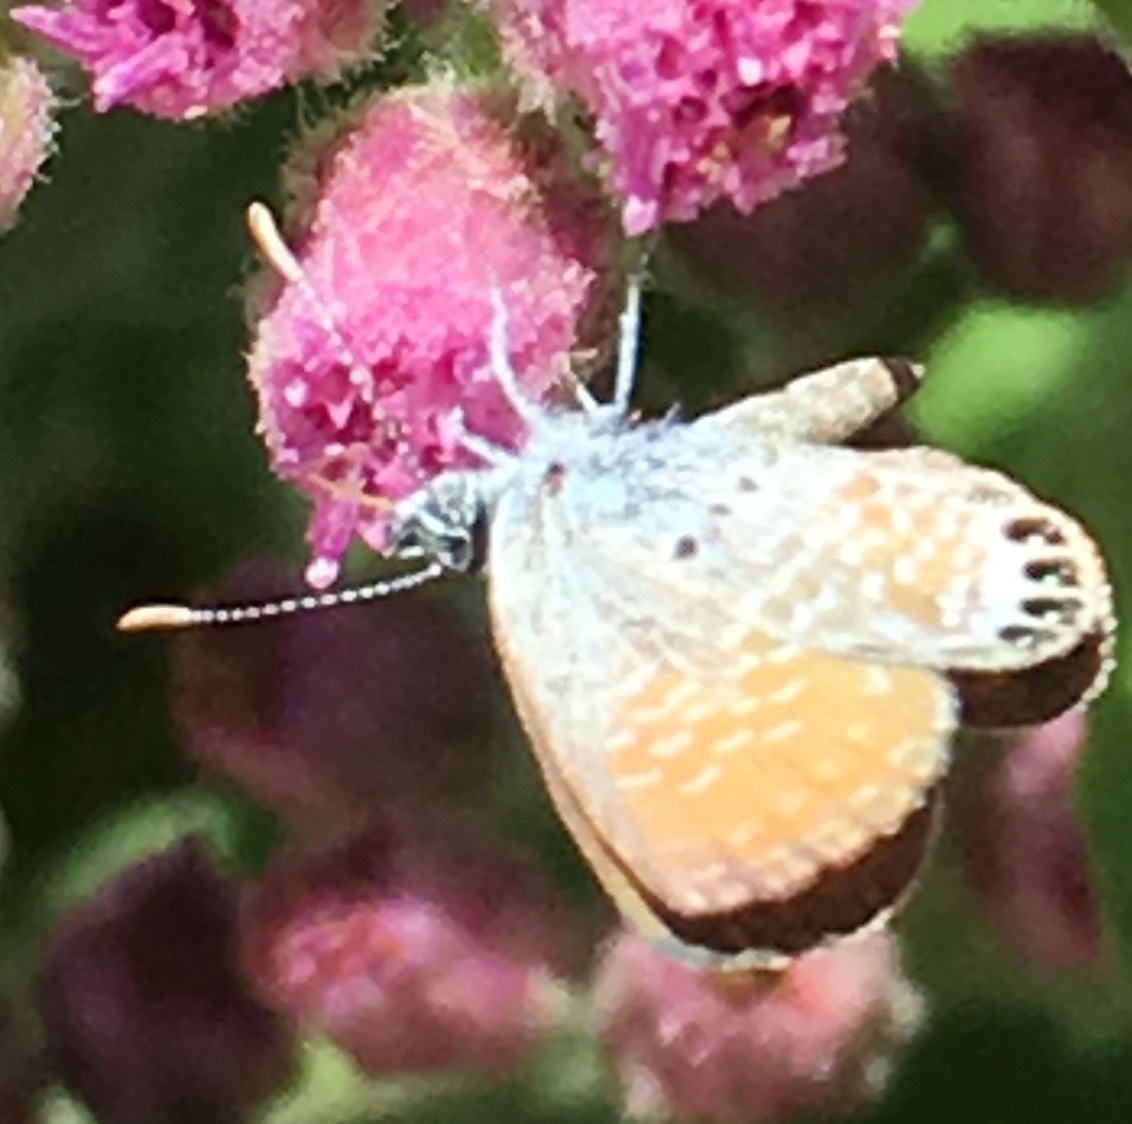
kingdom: Animalia
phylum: Arthropoda
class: Insecta
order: Lepidoptera
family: Lycaenidae
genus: Brephidium
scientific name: Brephidium exilis
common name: Pygmy blue
